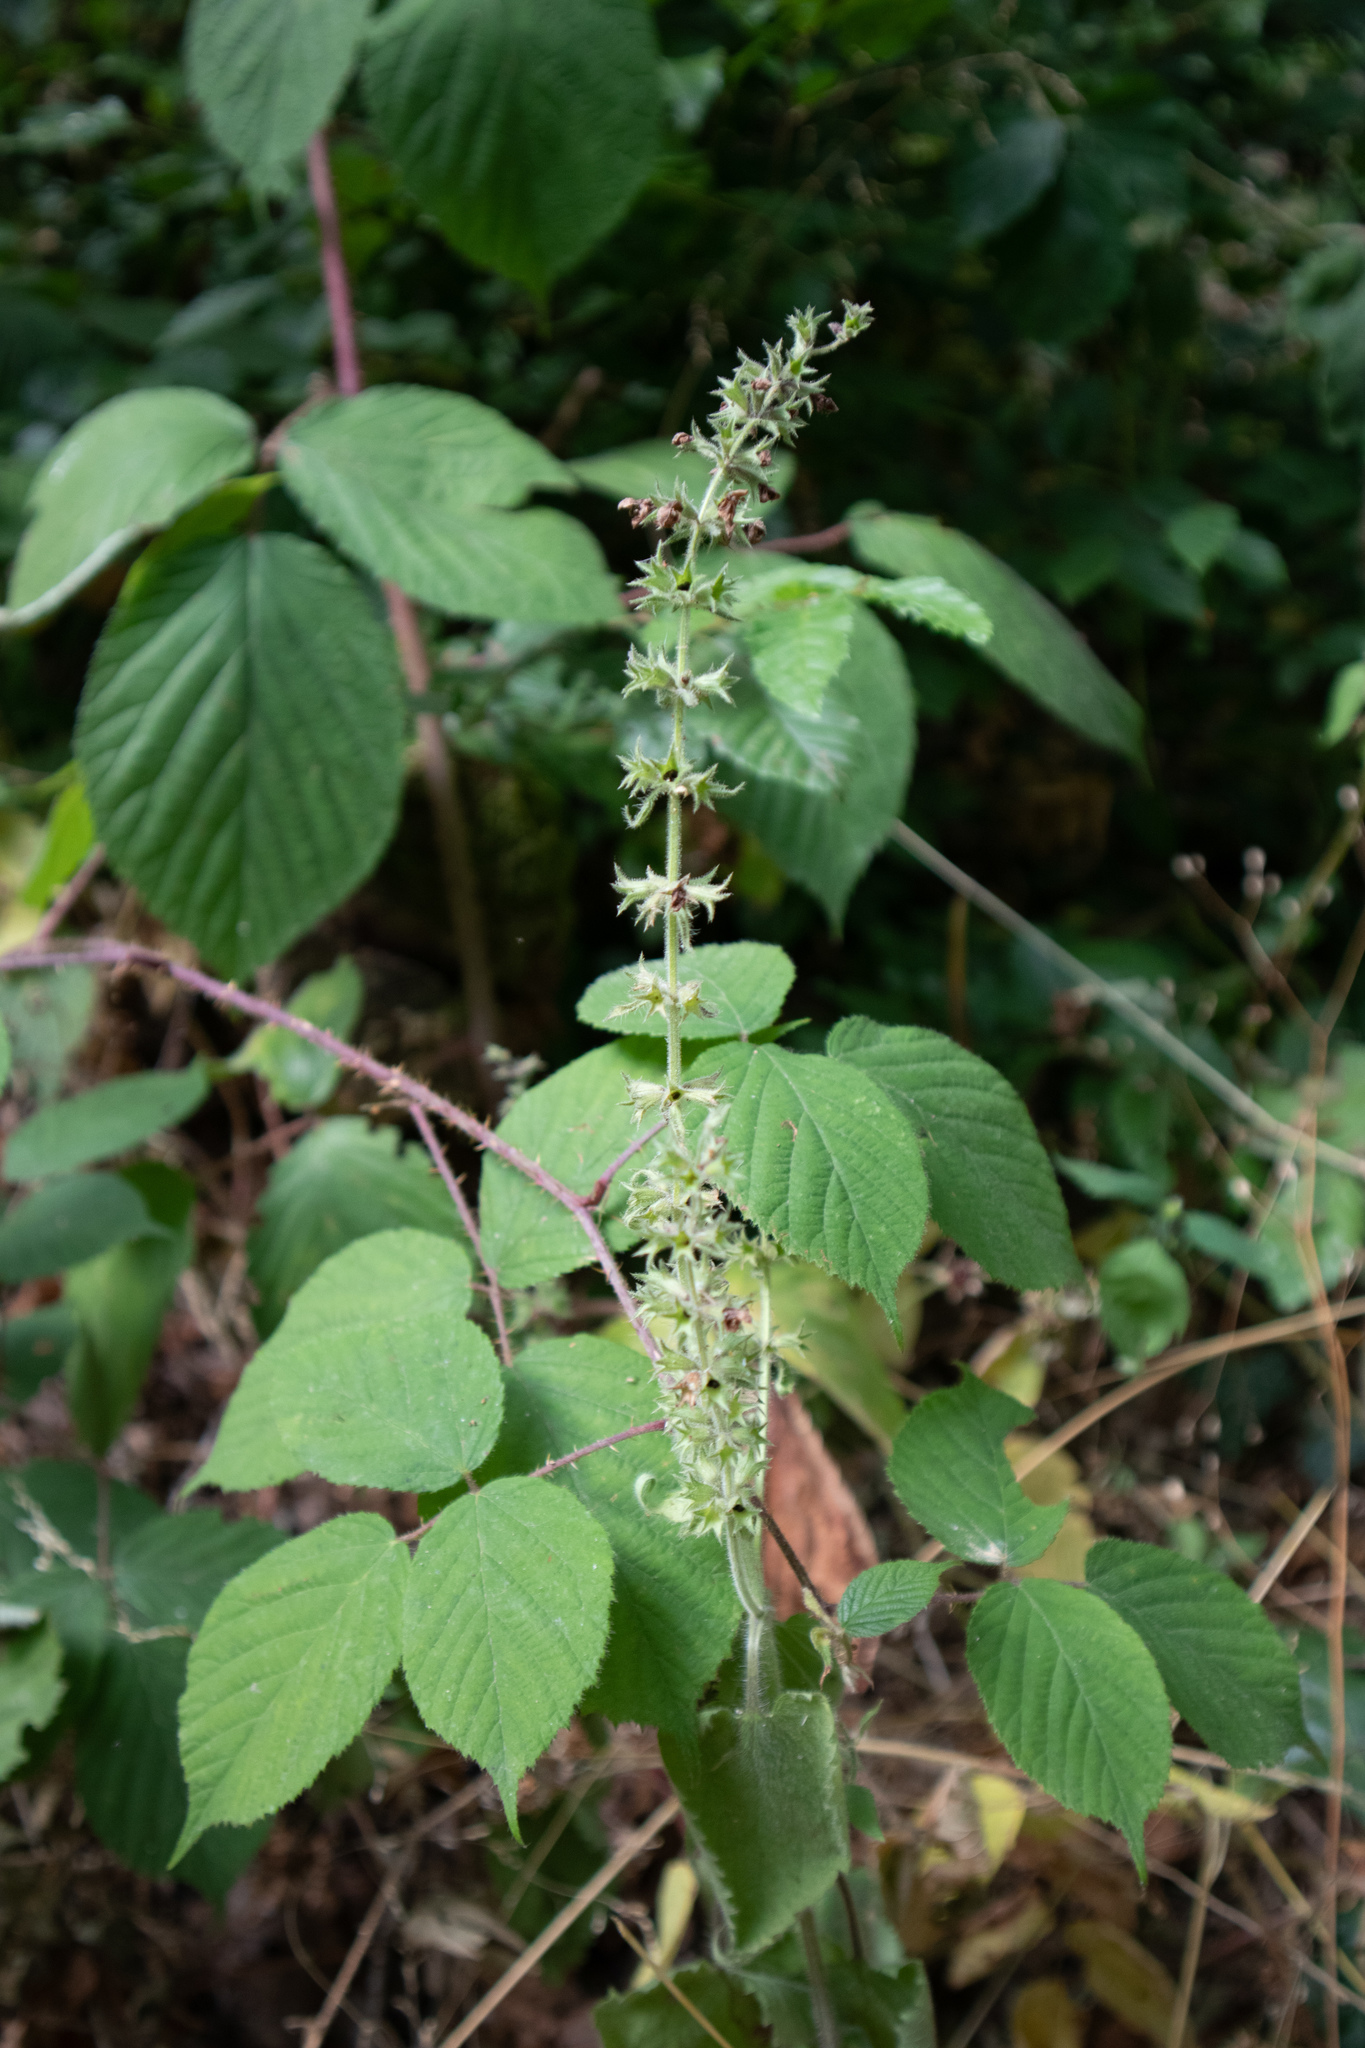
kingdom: Plantae
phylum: Tracheophyta
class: Magnoliopsida
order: Lamiales
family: Lamiaceae
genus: Stachys
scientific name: Stachys sylvatica
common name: Hedge woundwort
